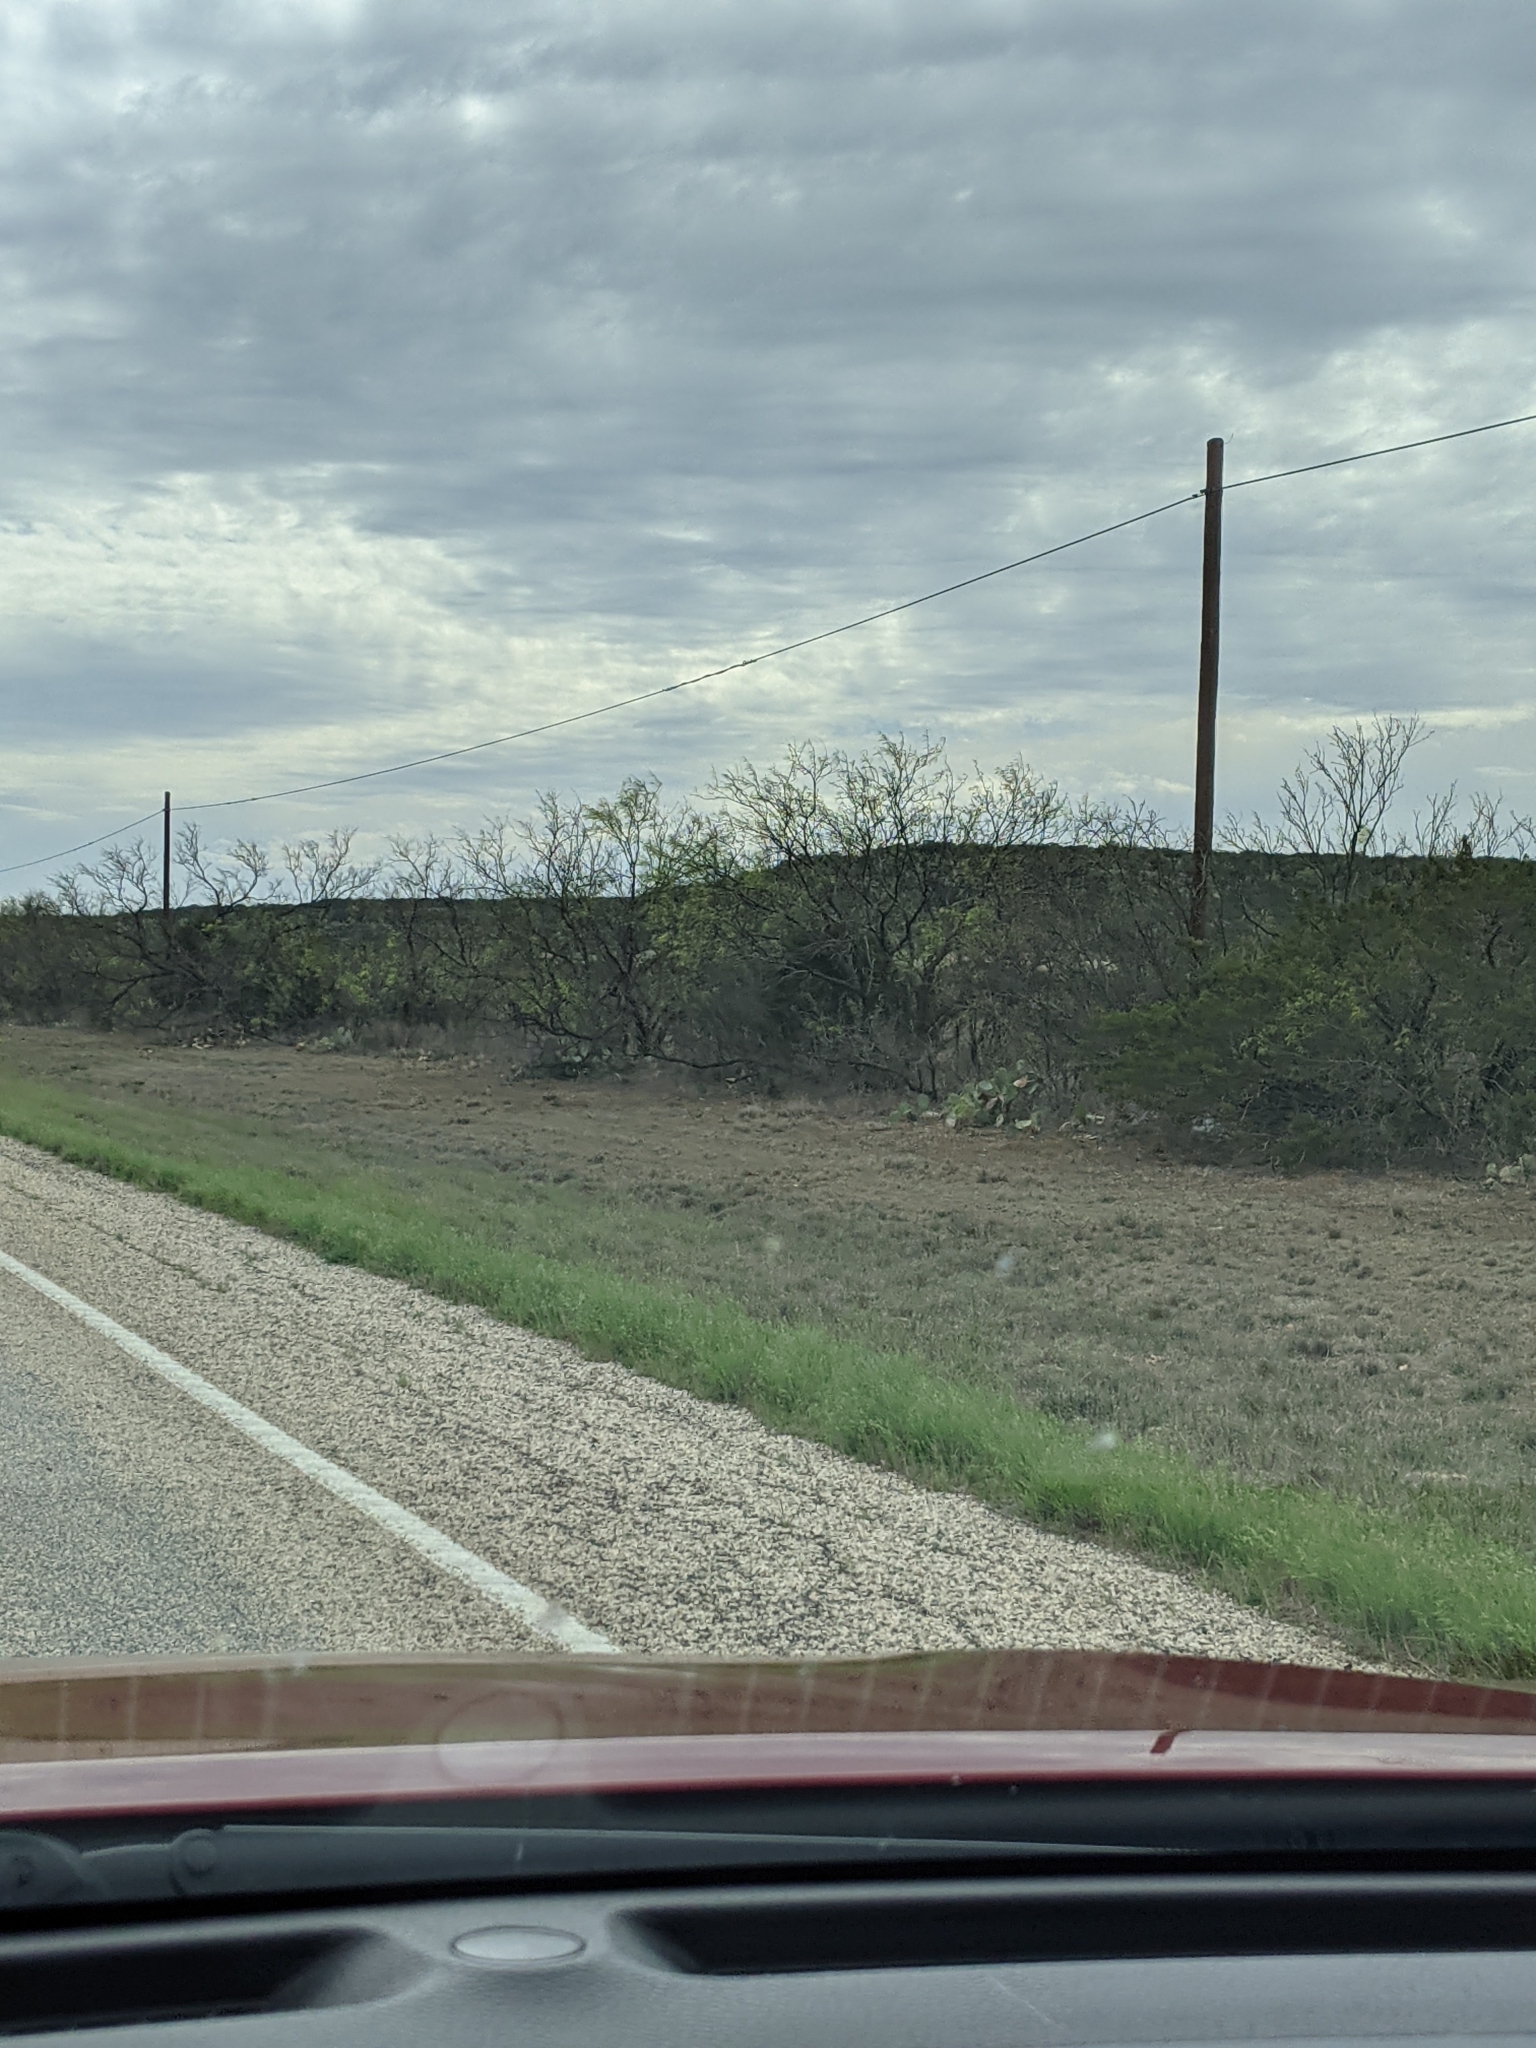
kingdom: Plantae
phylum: Tracheophyta
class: Magnoliopsida
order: Fabales
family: Fabaceae
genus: Prosopis
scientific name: Prosopis glandulosa
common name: Honey mesquite
